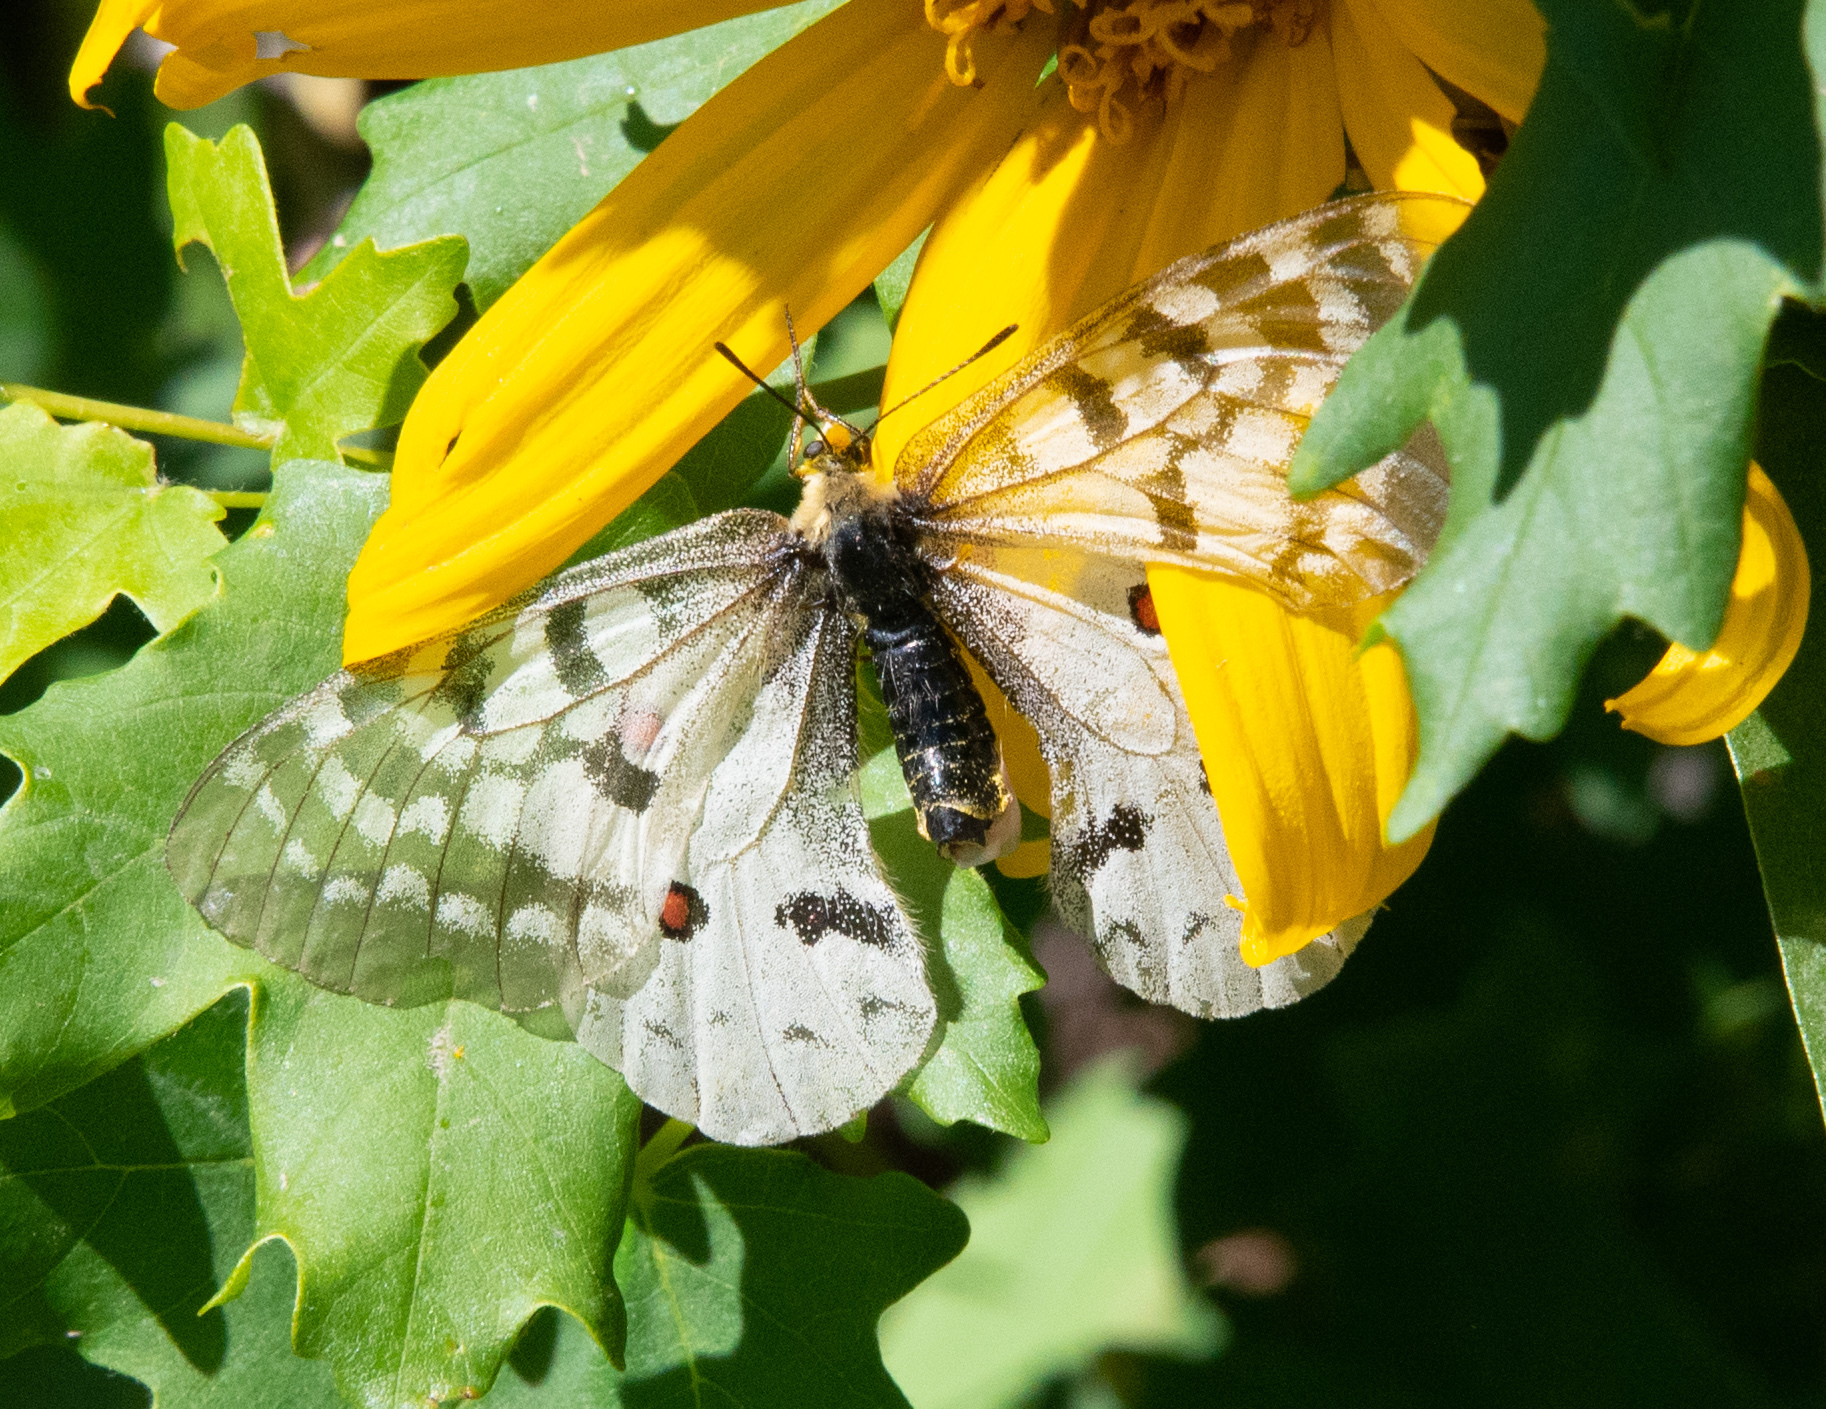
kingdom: Animalia
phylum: Arthropoda
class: Insecta
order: Lepidoptera
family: Papilionidae
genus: Parnassius
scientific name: Parnassius clodius
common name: American apollo
